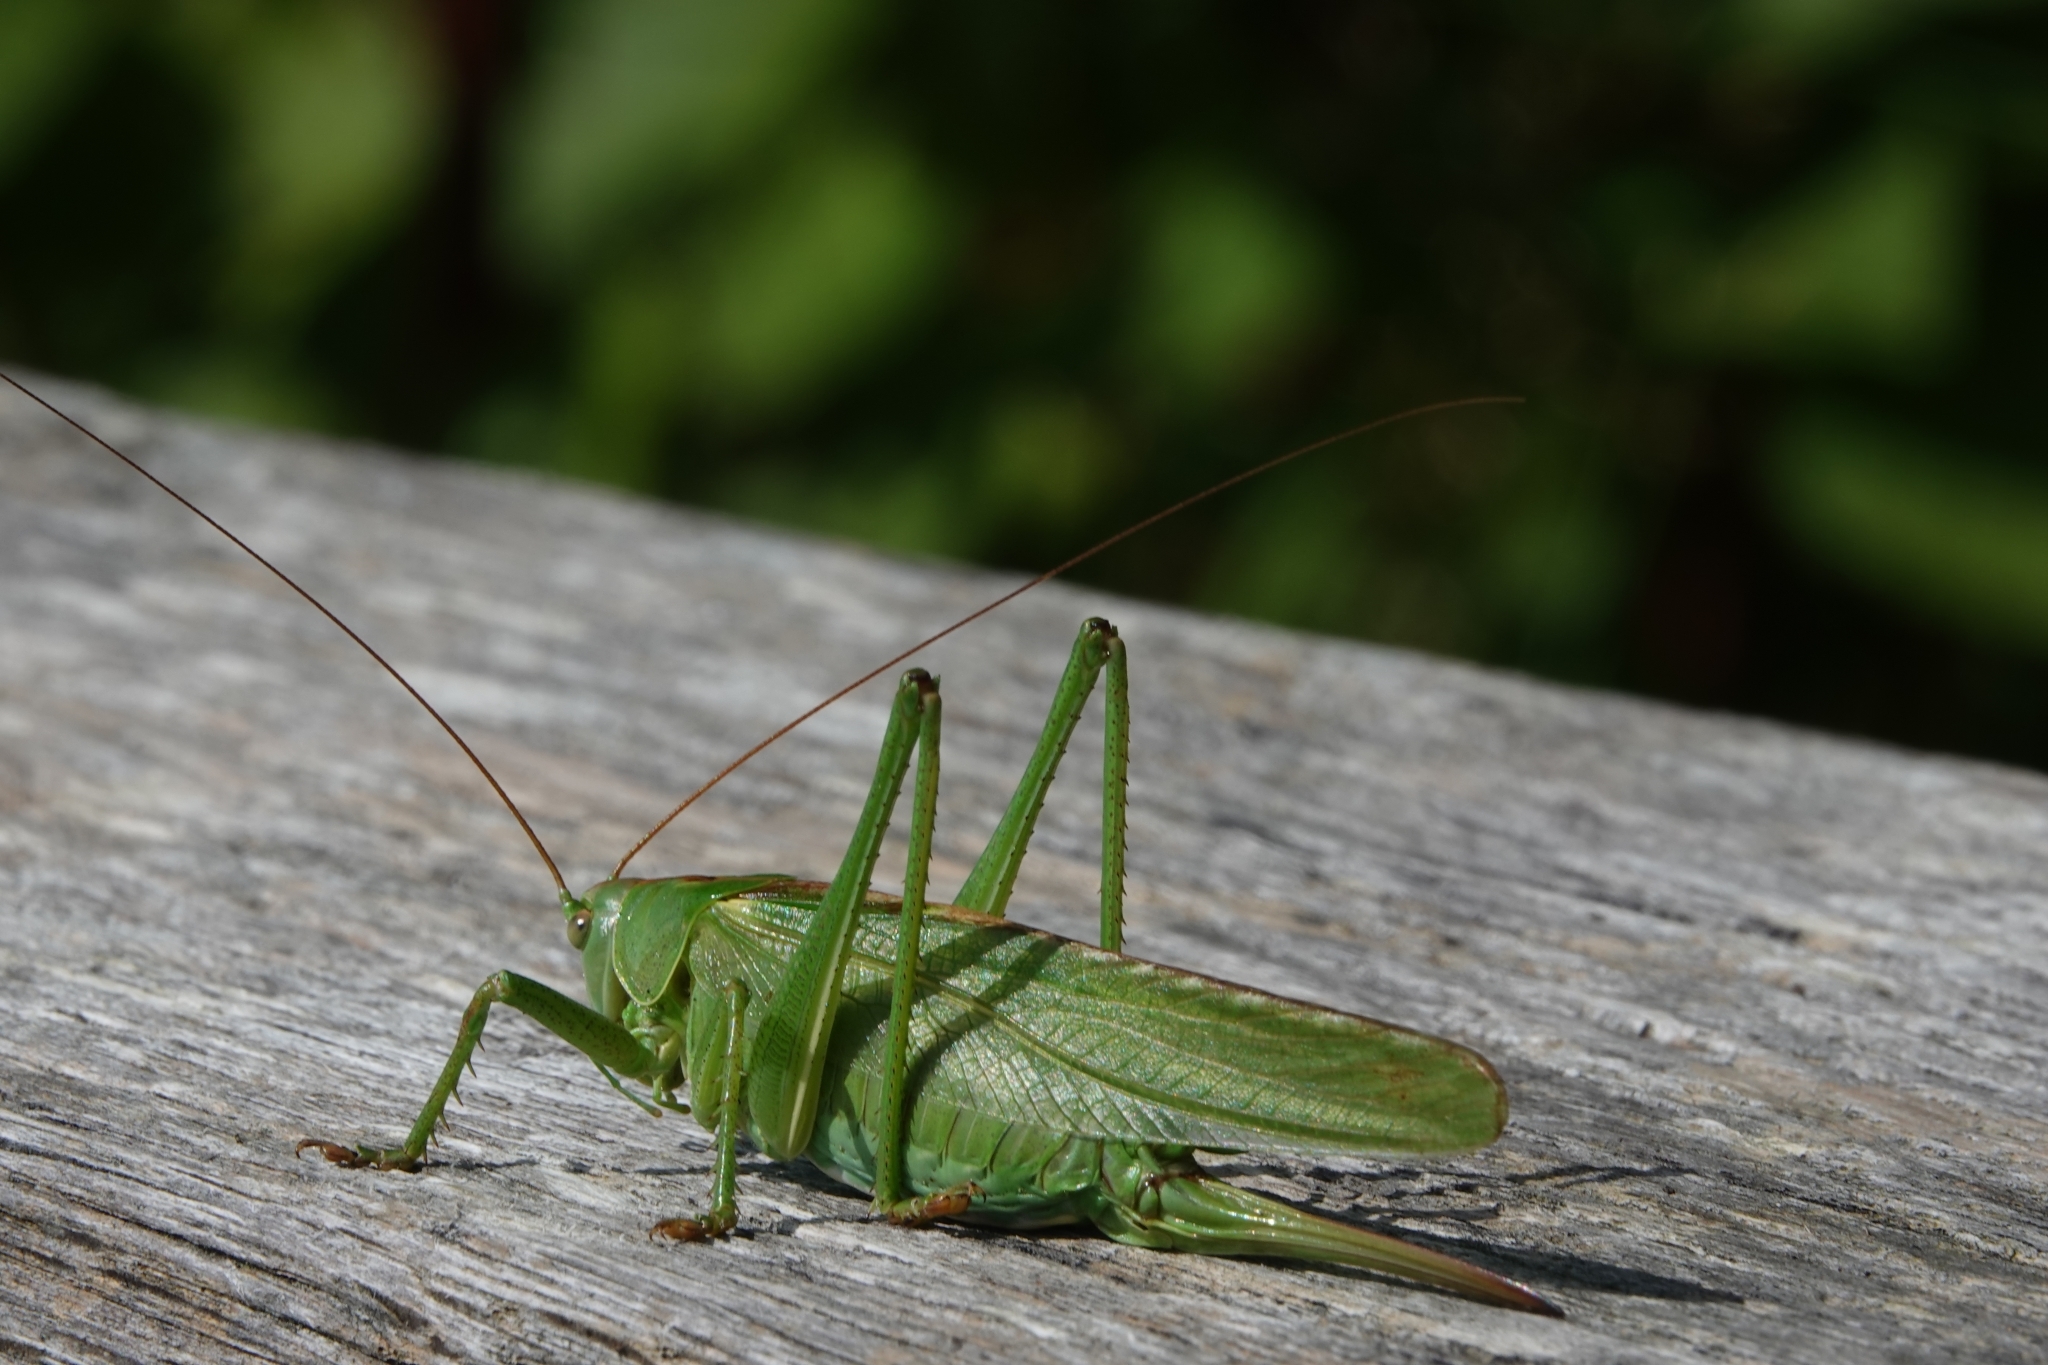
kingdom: Animalia
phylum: Arthropoda
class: Insecta
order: Orthoptera
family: Tettigoniidae
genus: Tettigonia
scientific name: Tettigonia viridissima
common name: Great green bush-cricket
